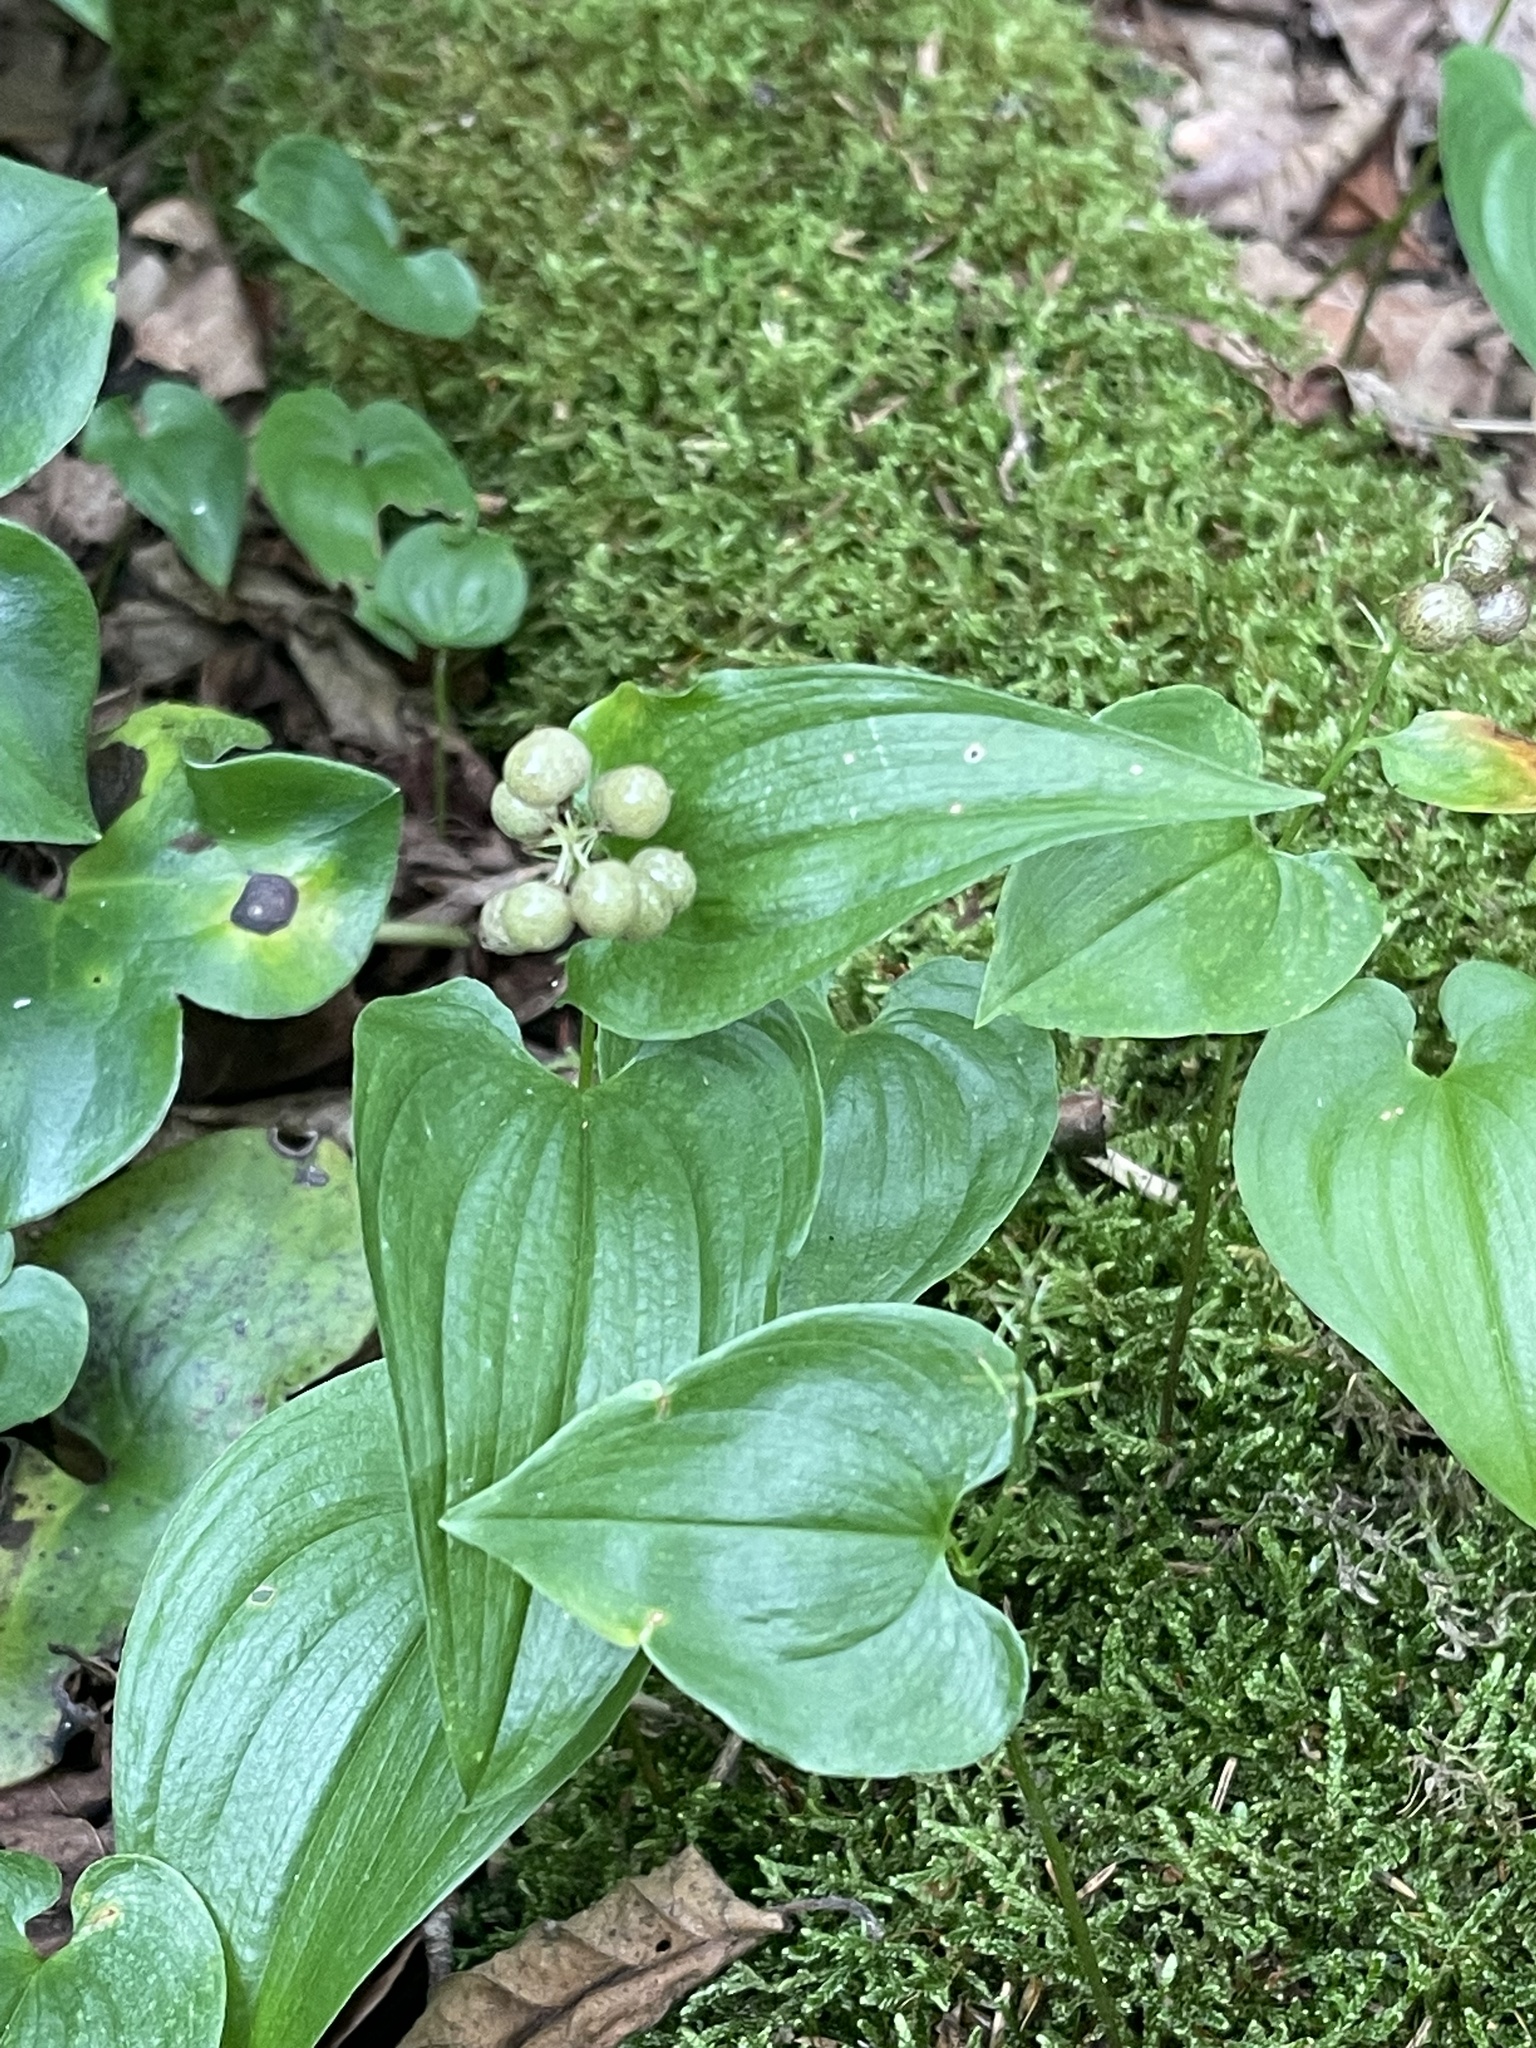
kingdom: Plantae
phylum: Tracheophyta
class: Liliopsida
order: Asparagales
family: Asparagaceae
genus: Maianthemum
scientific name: Maianthemum bifolium
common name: May lily
